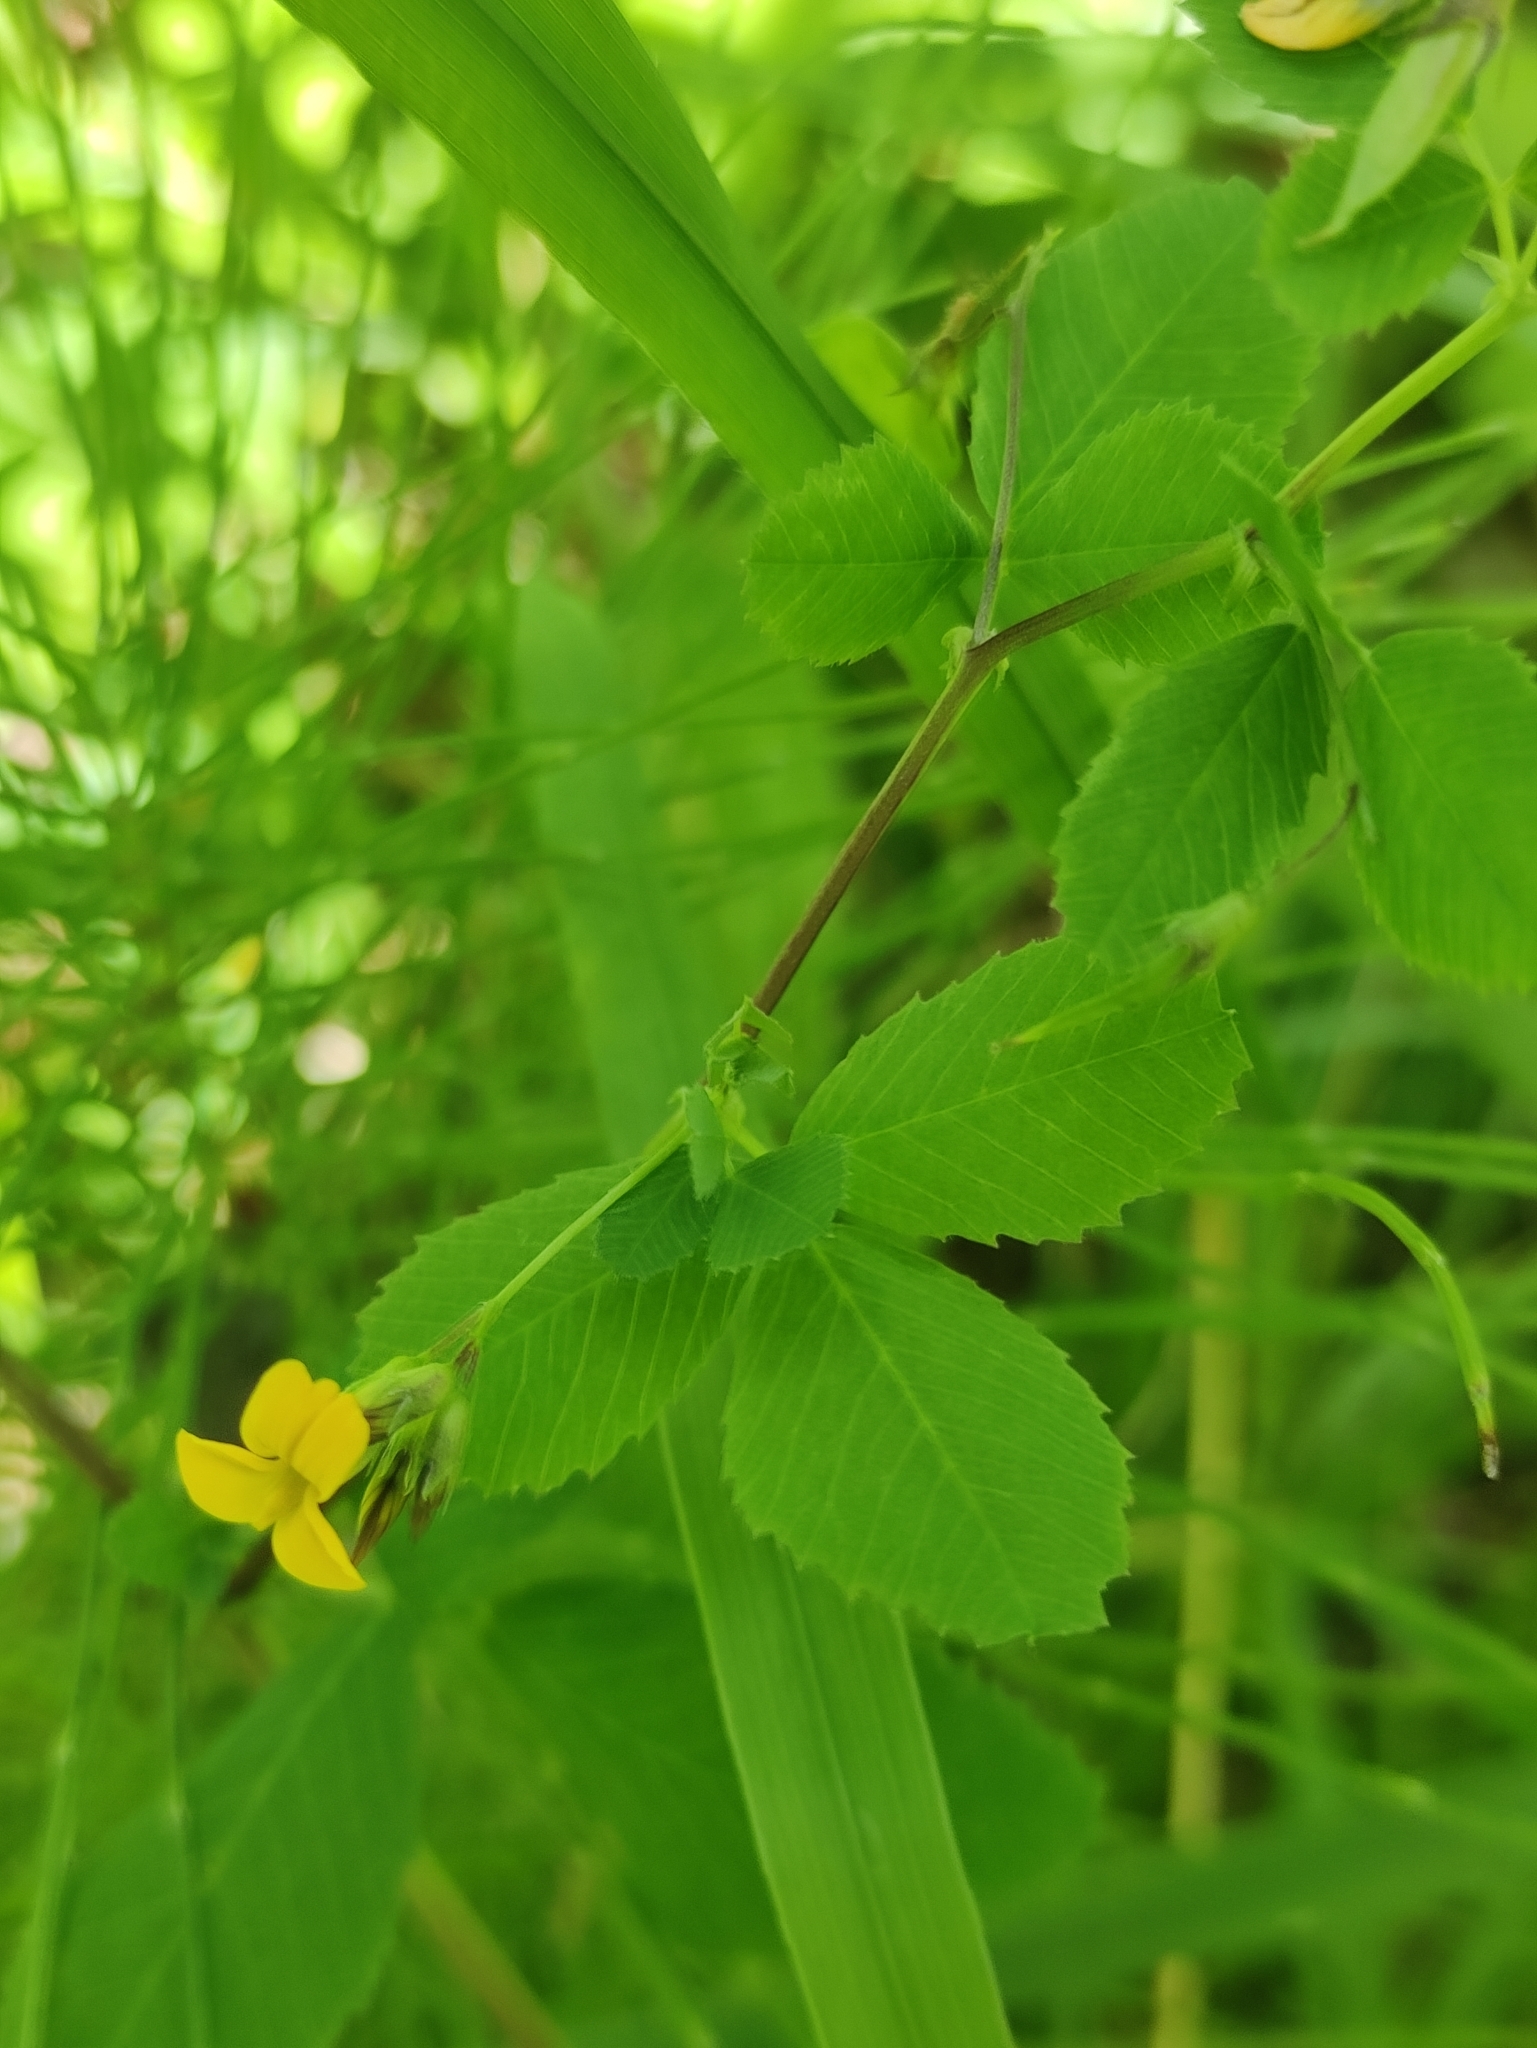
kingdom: Plantae
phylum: Tracheophyta
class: Magnoliopsida
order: Fabales
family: Fabaceae
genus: Medicago
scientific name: Medicago platycarpos
